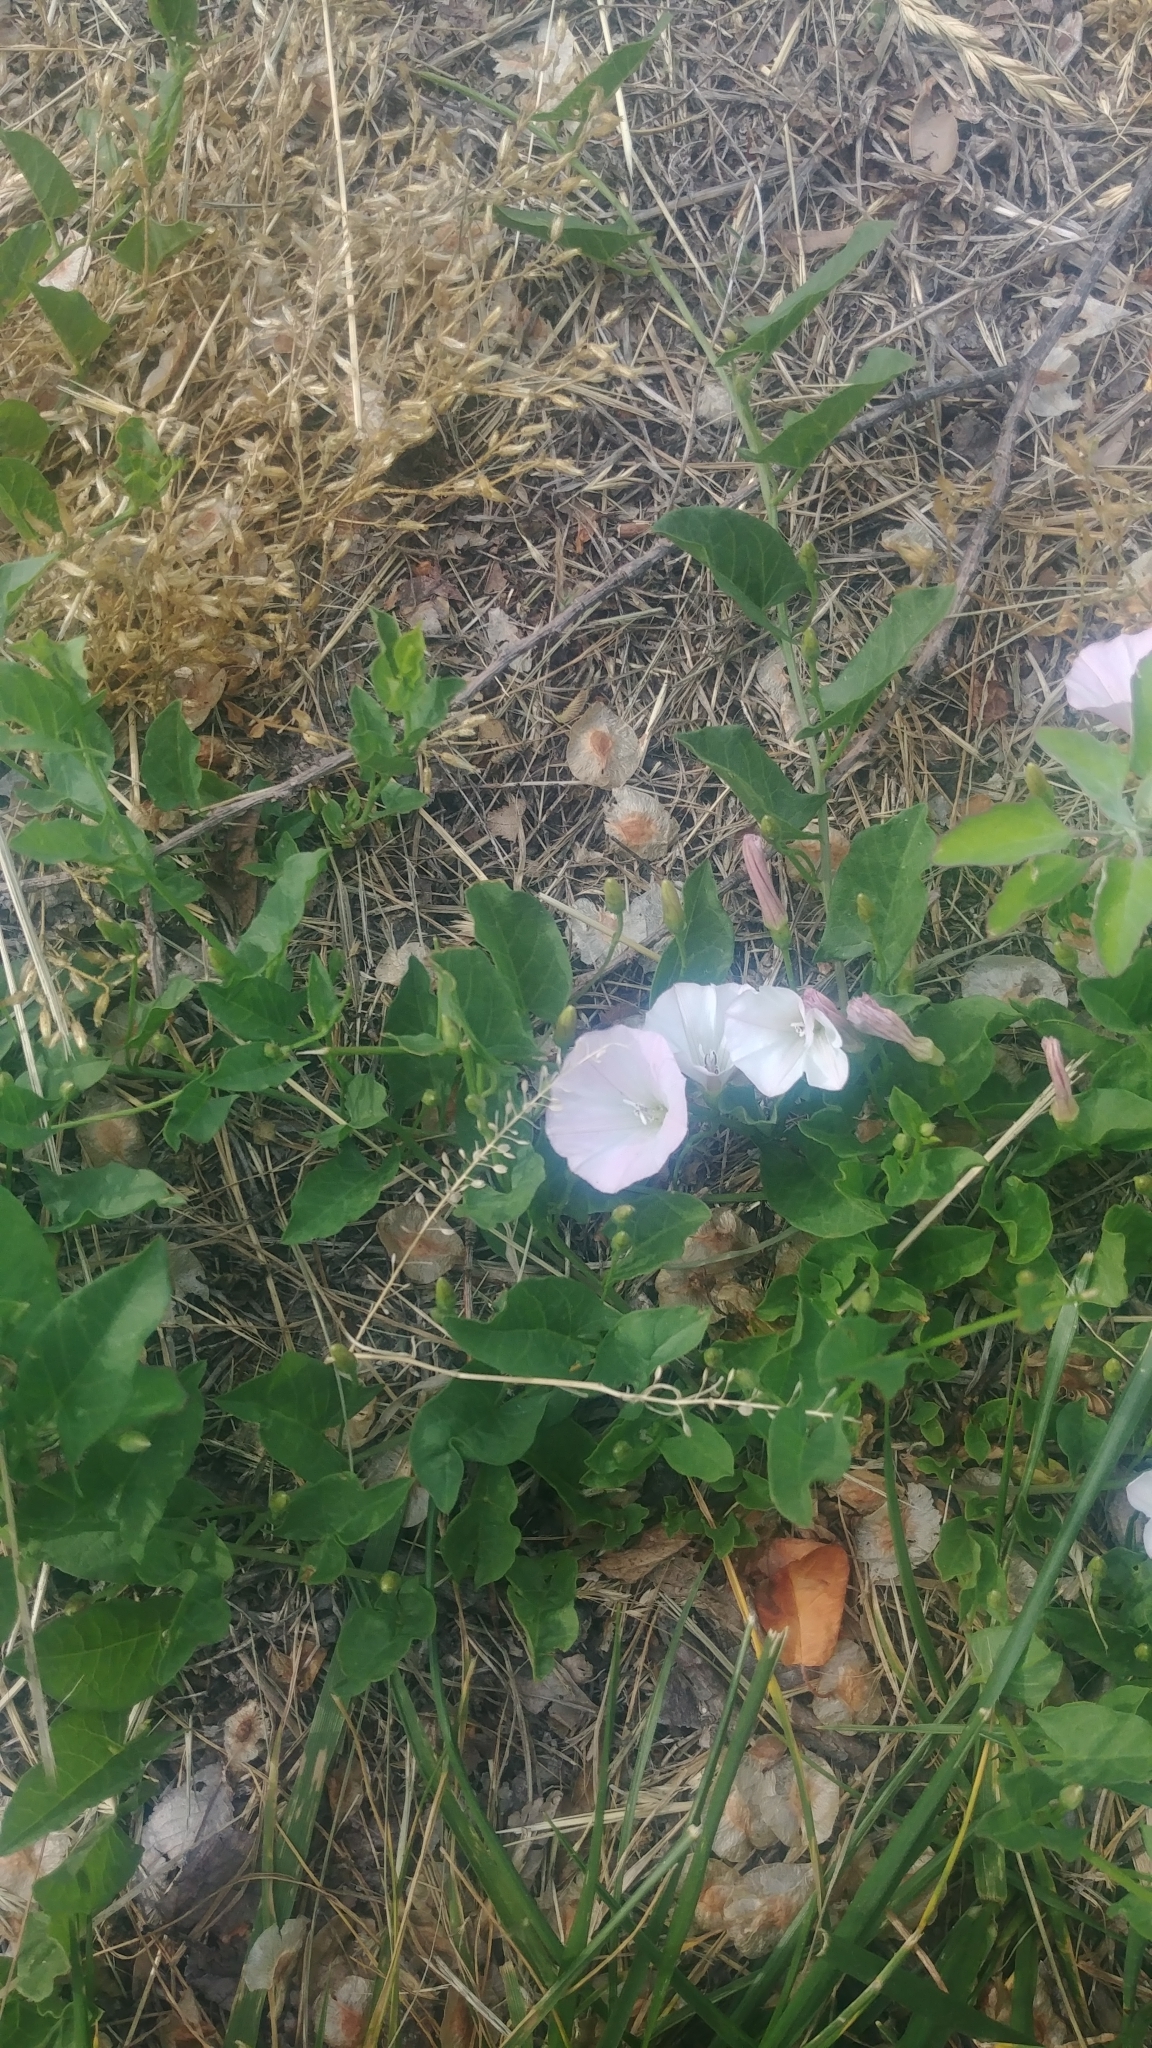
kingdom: Plantae
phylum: Tracheophyta
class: Magnoliopsida
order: Solanales
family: Convolvulaceae
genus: Convolvulus
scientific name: Convolvulus arvensis
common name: Field bindweed
